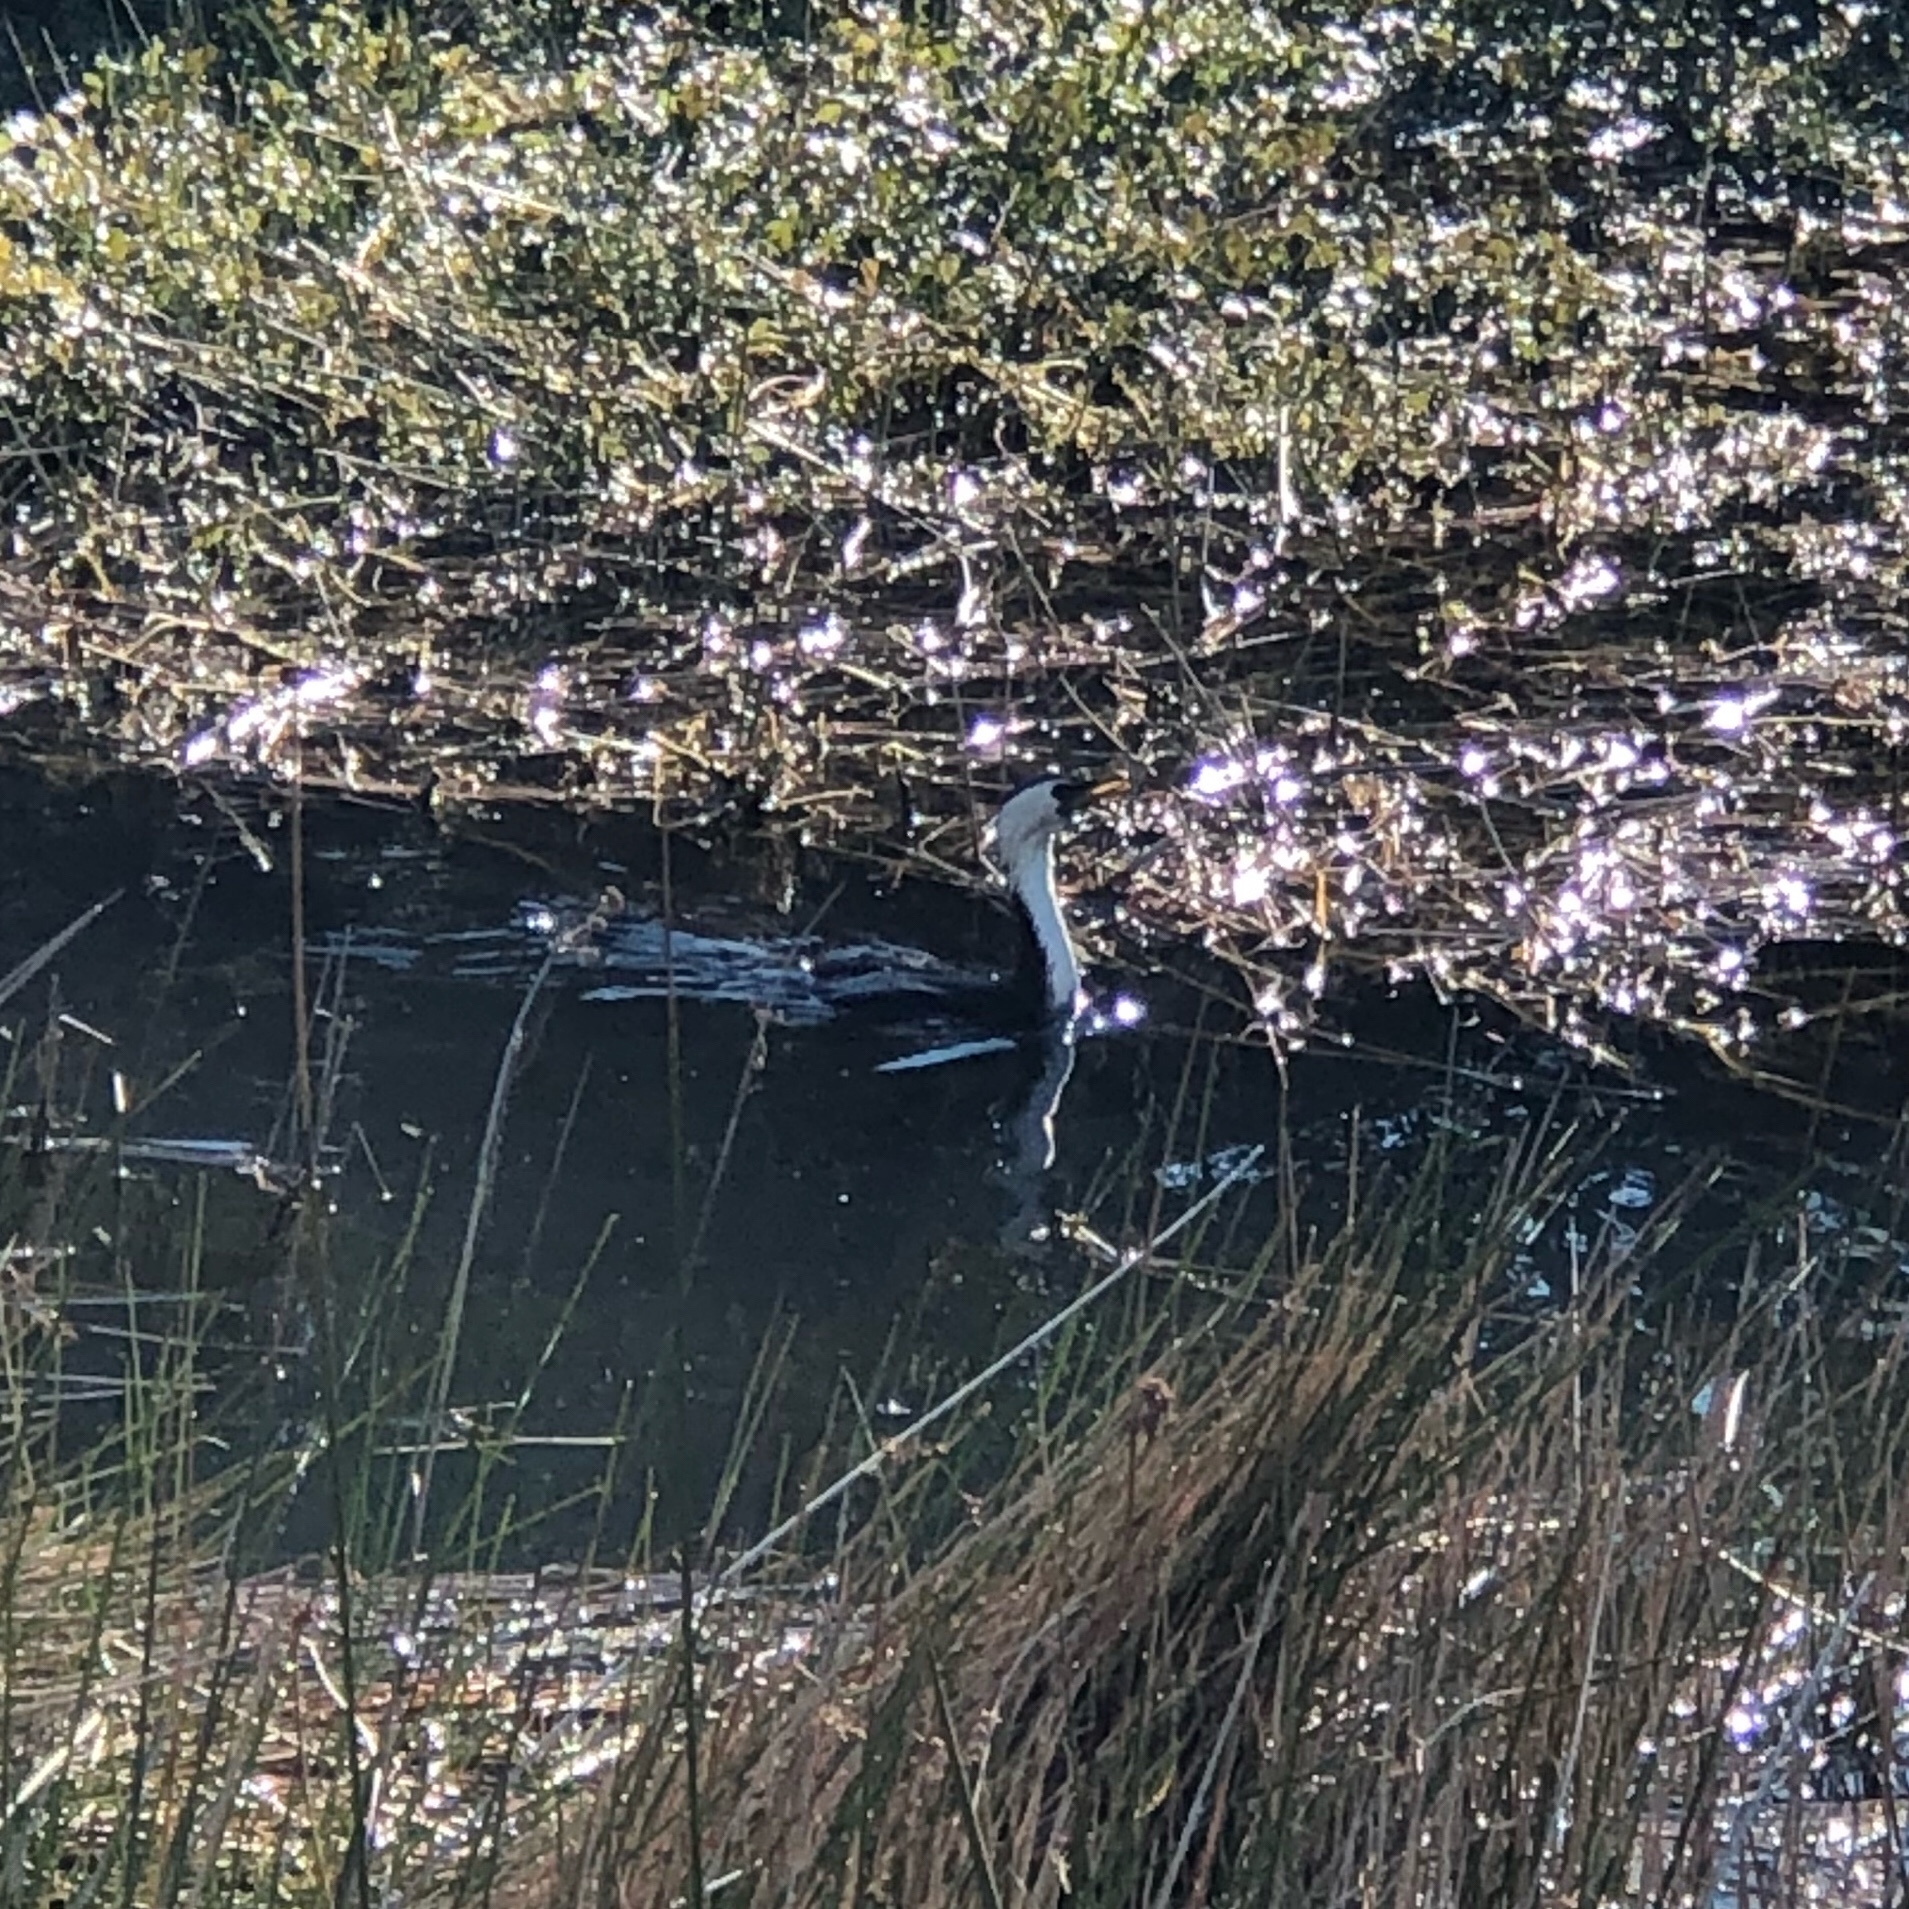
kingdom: Animalia
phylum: Chordata
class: Aves
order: Suliformes
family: Phalacrocoracidae
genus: Microcarbo
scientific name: Microcarbo melanoleucos
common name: Little pied cormorant
